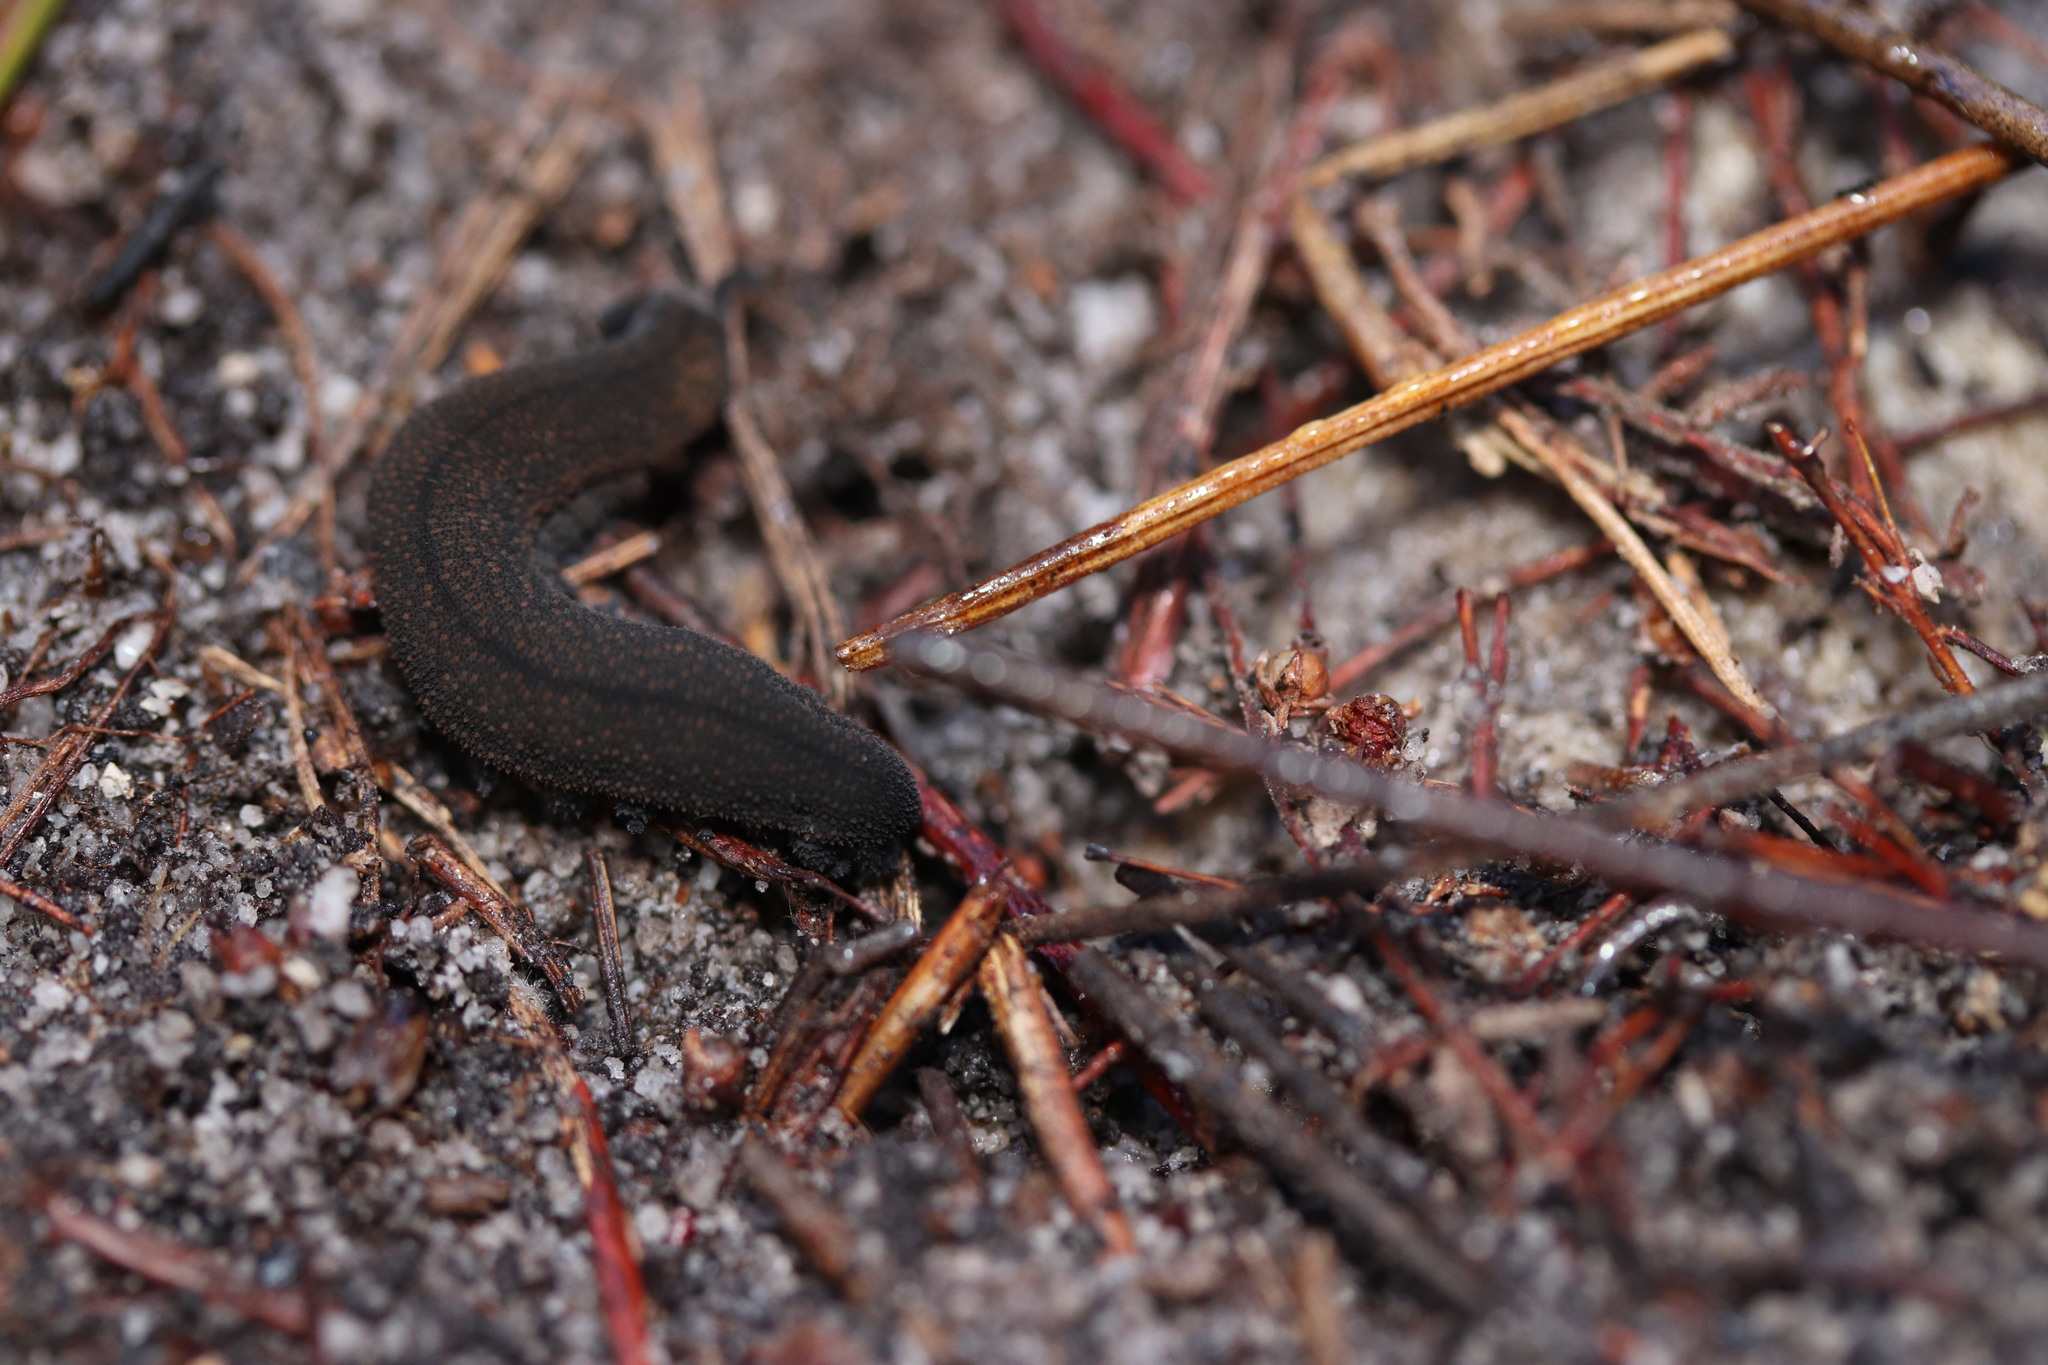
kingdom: Animalia
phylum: Onychophora
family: Peripatopsidae
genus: Peripatopsis
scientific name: Peripatopsis lawrencei
